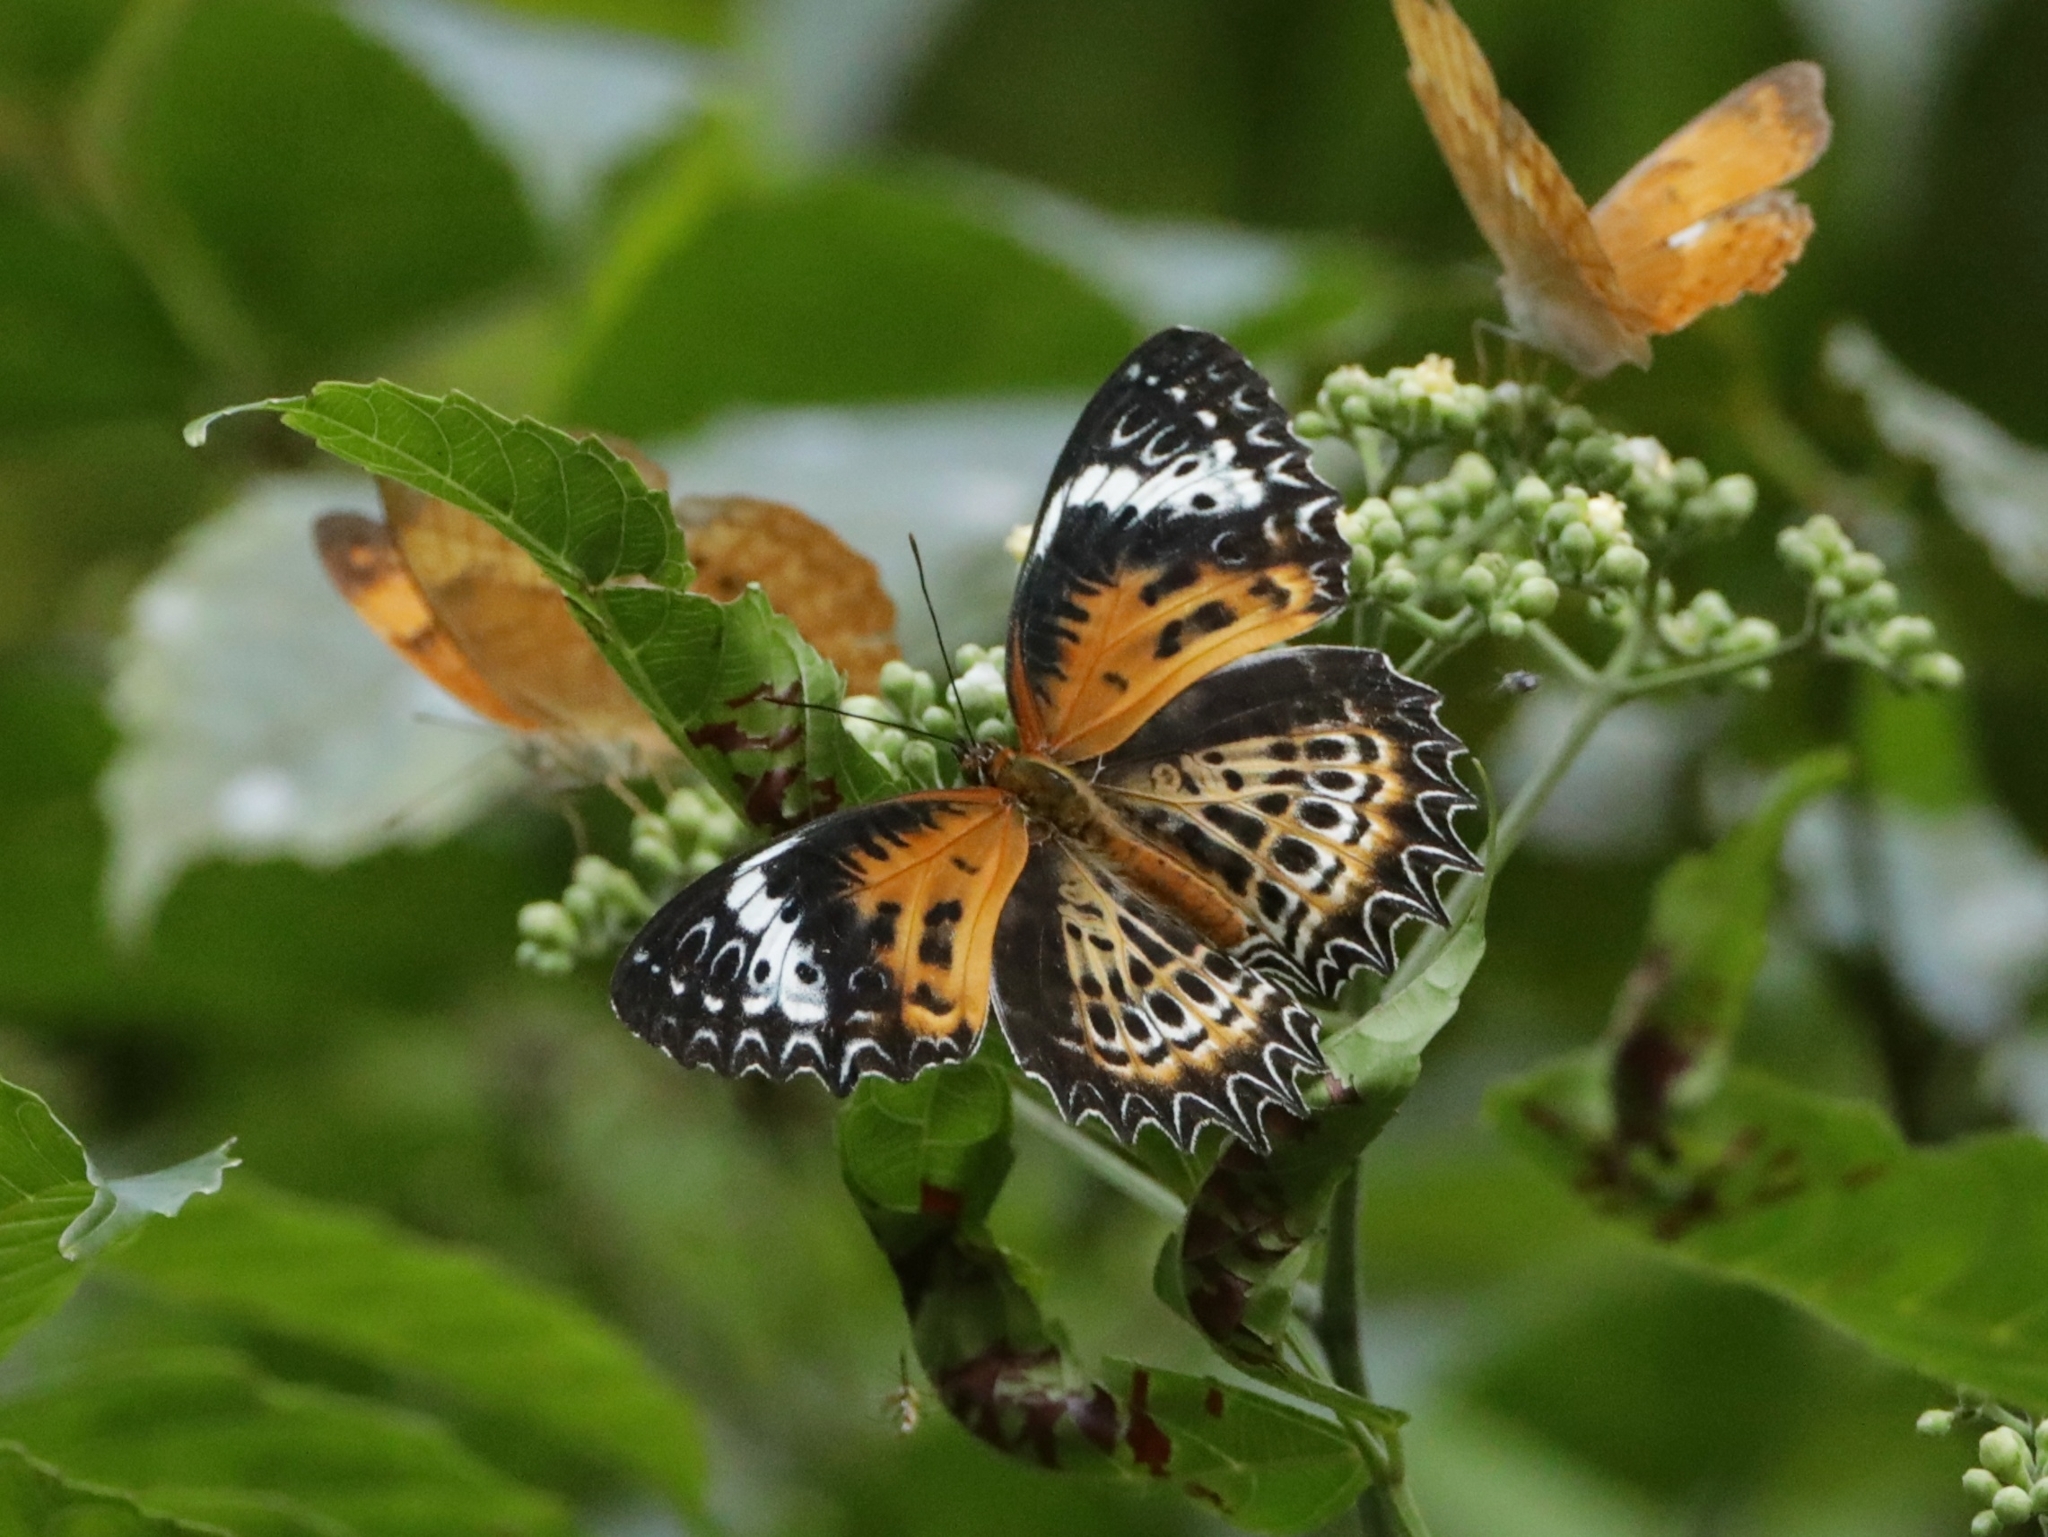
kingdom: Animalia
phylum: Arthropoda
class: Insecta
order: Lepidoptera
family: Nymphalidae
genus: Cethosia
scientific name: Cethosia
